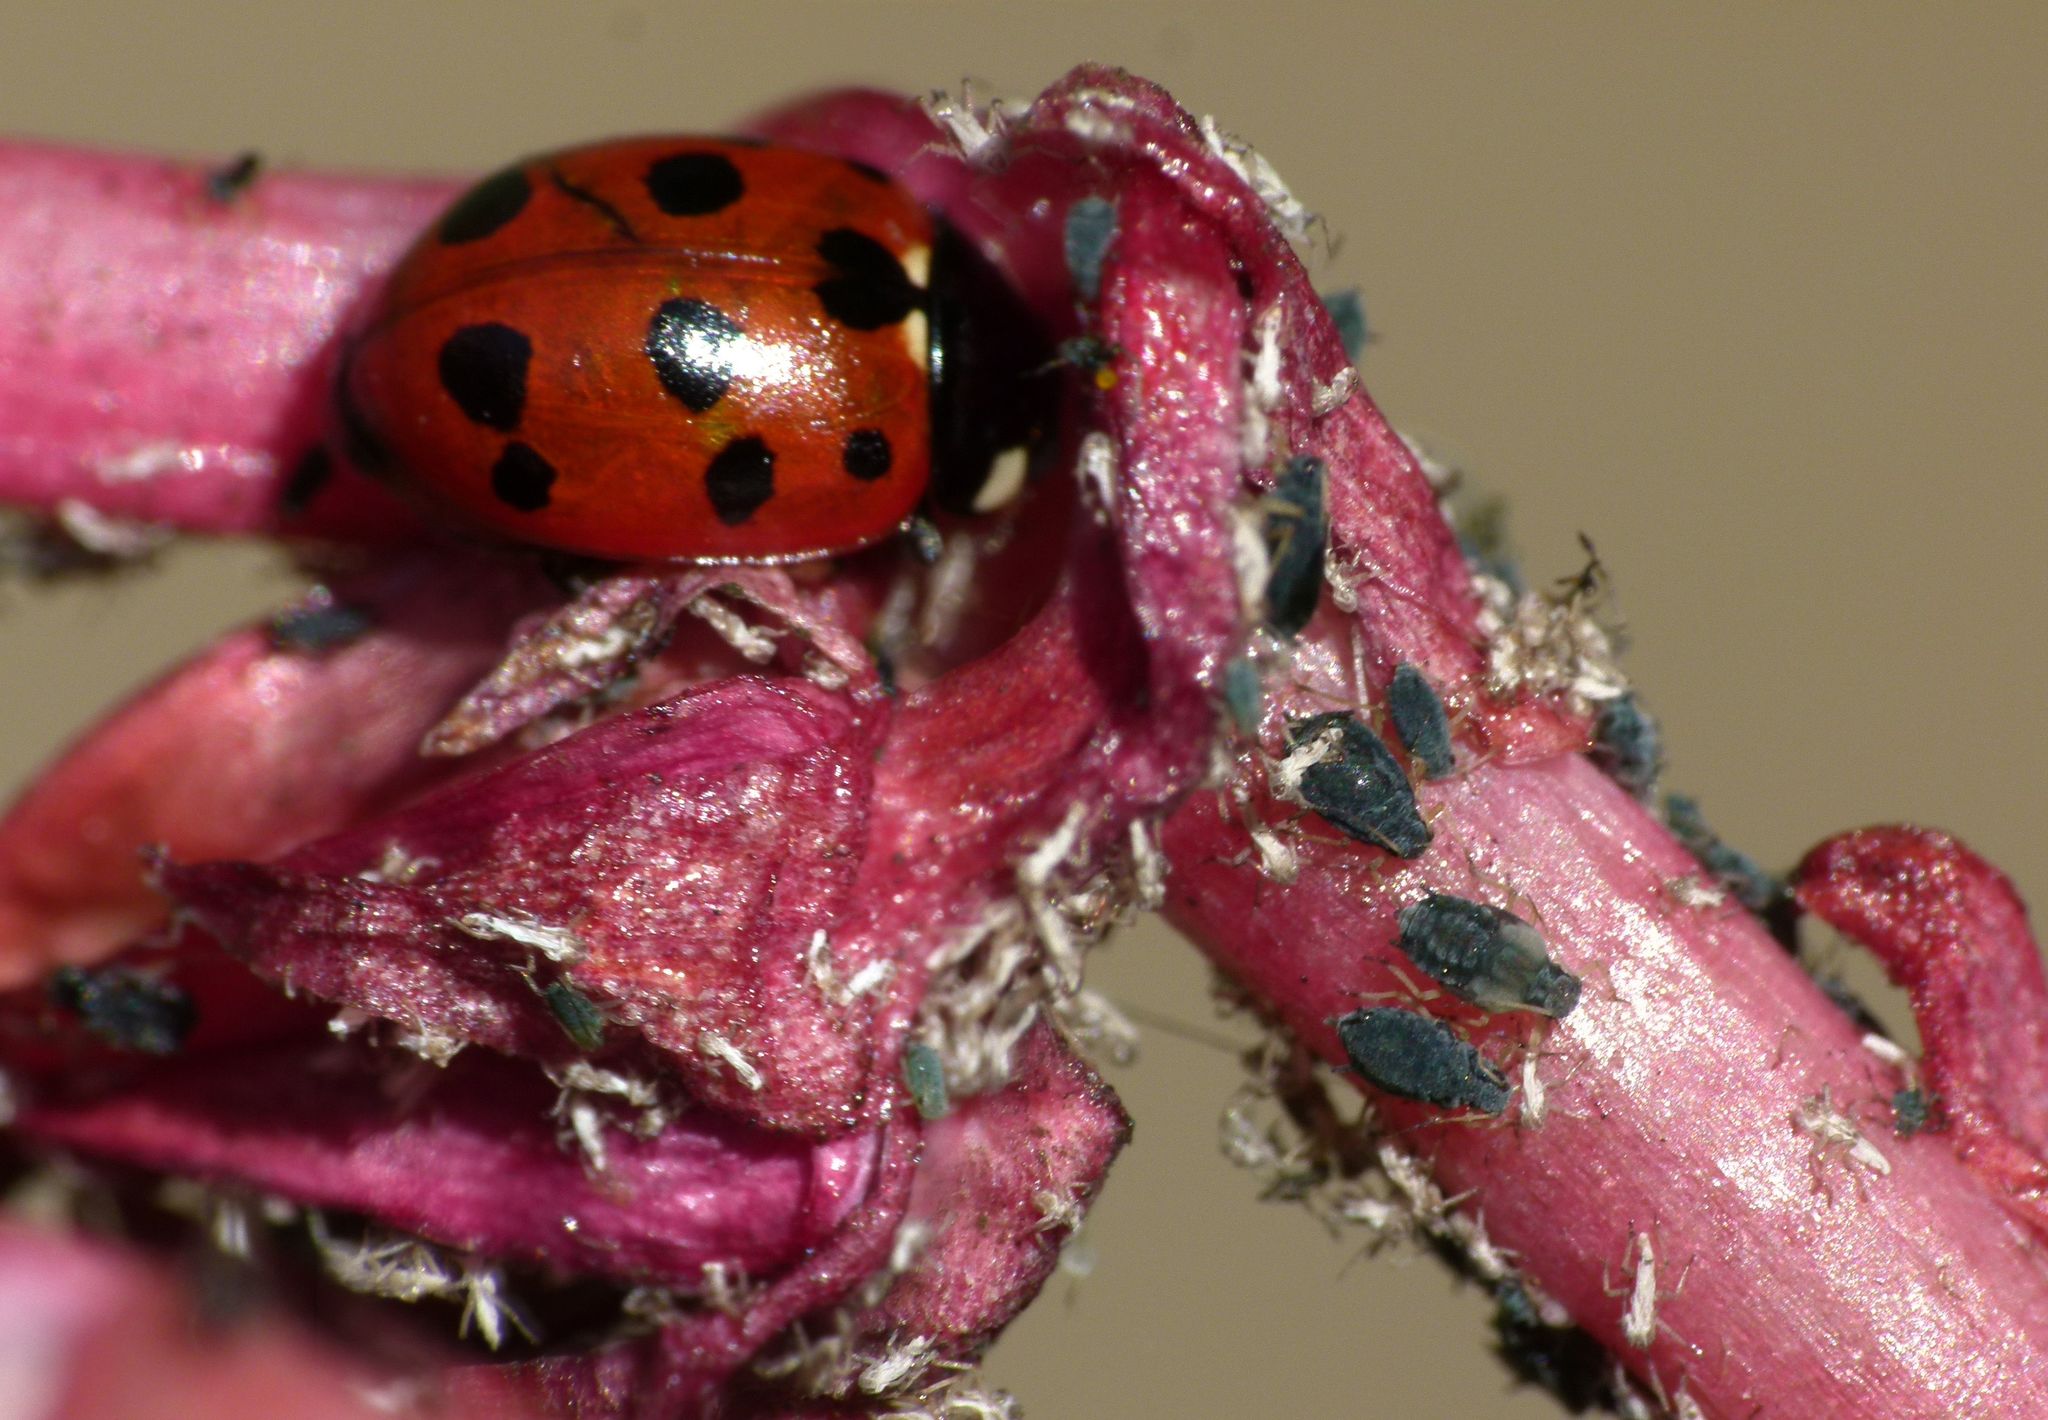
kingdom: Animalia
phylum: Arthropoda
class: Insecta
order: Coleoptera
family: Coccinellidae
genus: Coccinella
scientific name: Coccinella undecimpunctata
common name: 11-spot ladybird
